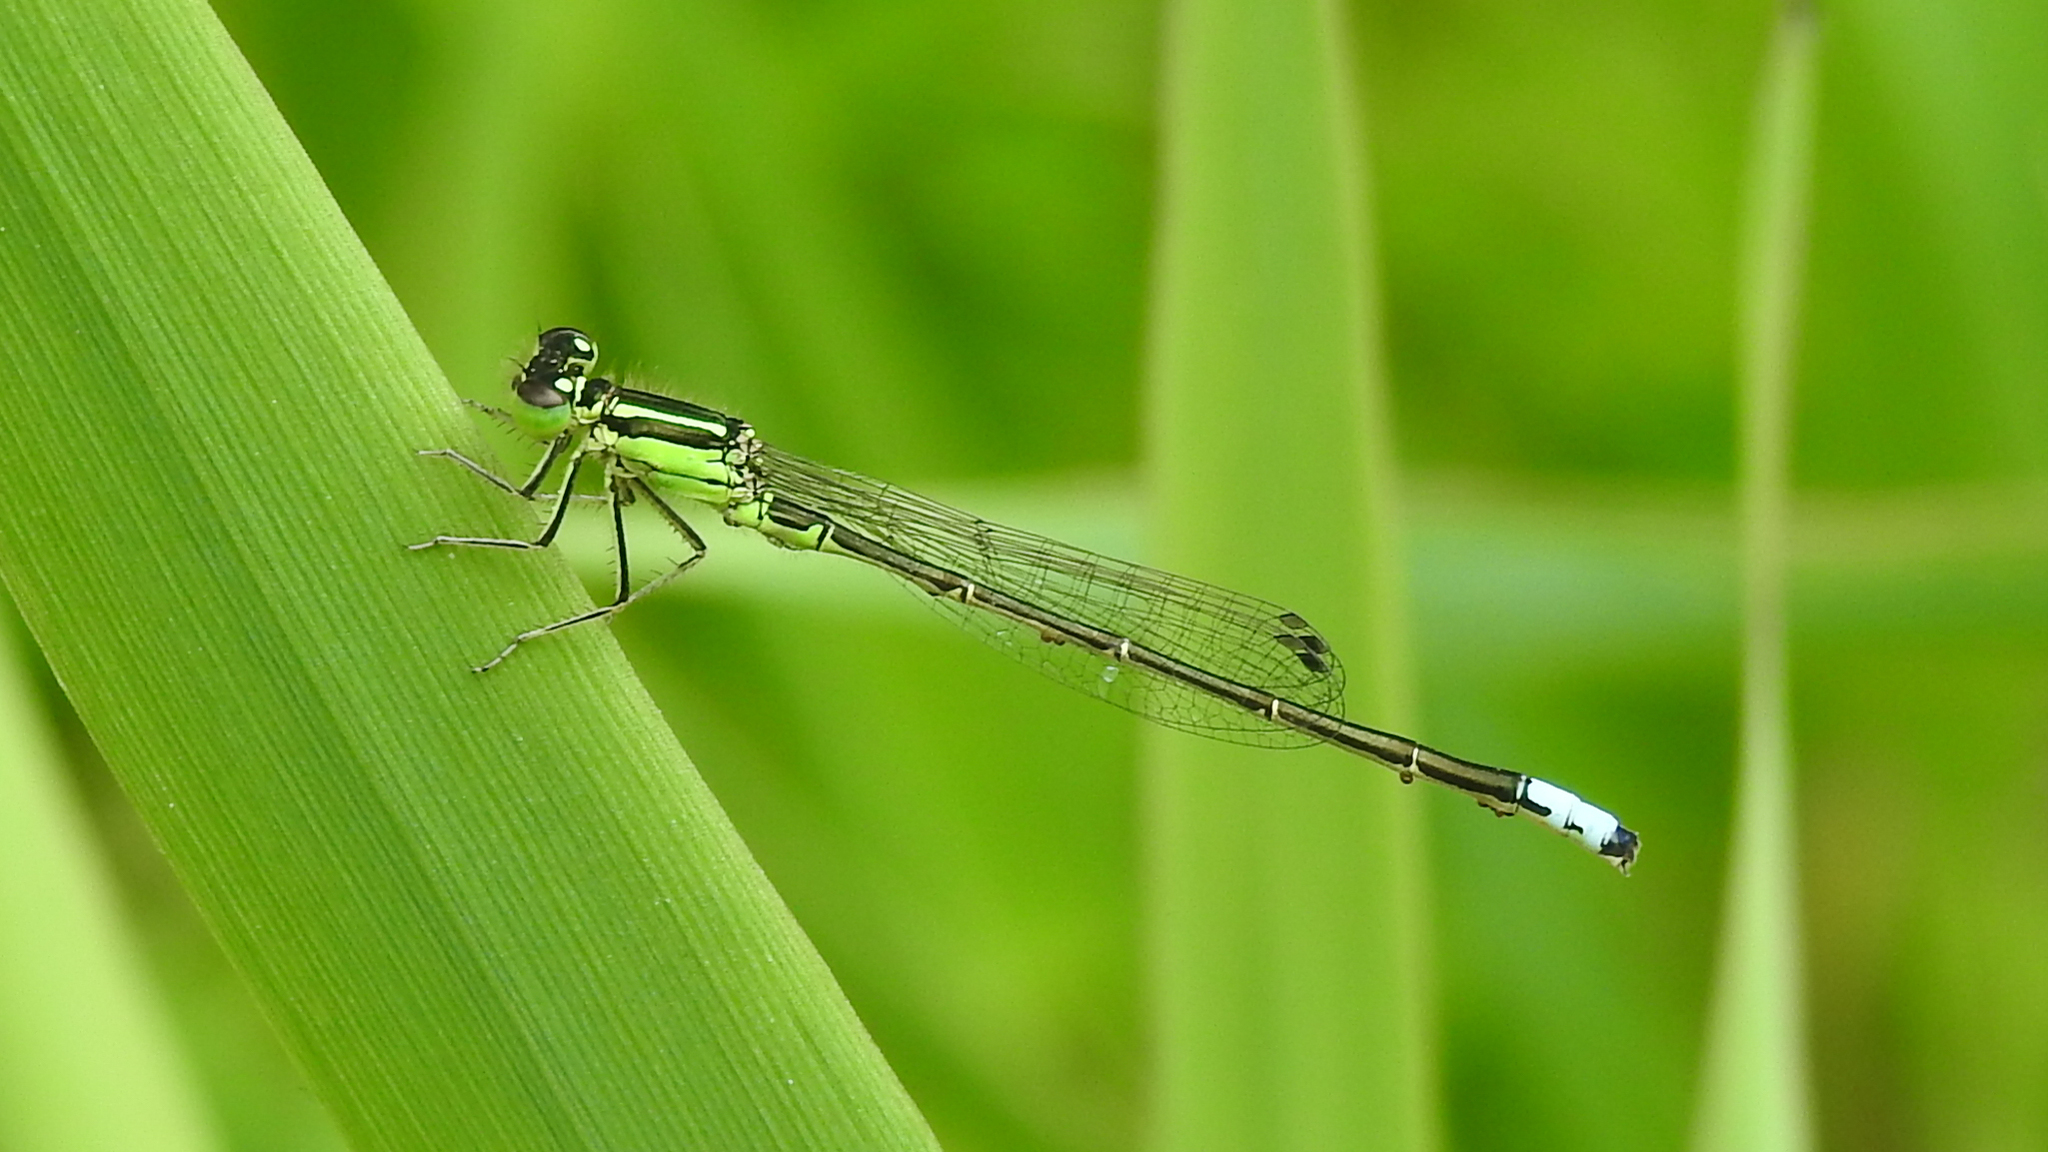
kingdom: Animalia
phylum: Arthropoda
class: Insecta
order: Odonata
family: Coenagrionidae
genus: Ischnura
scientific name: Ischnura verticalis
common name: Eastern forktail
